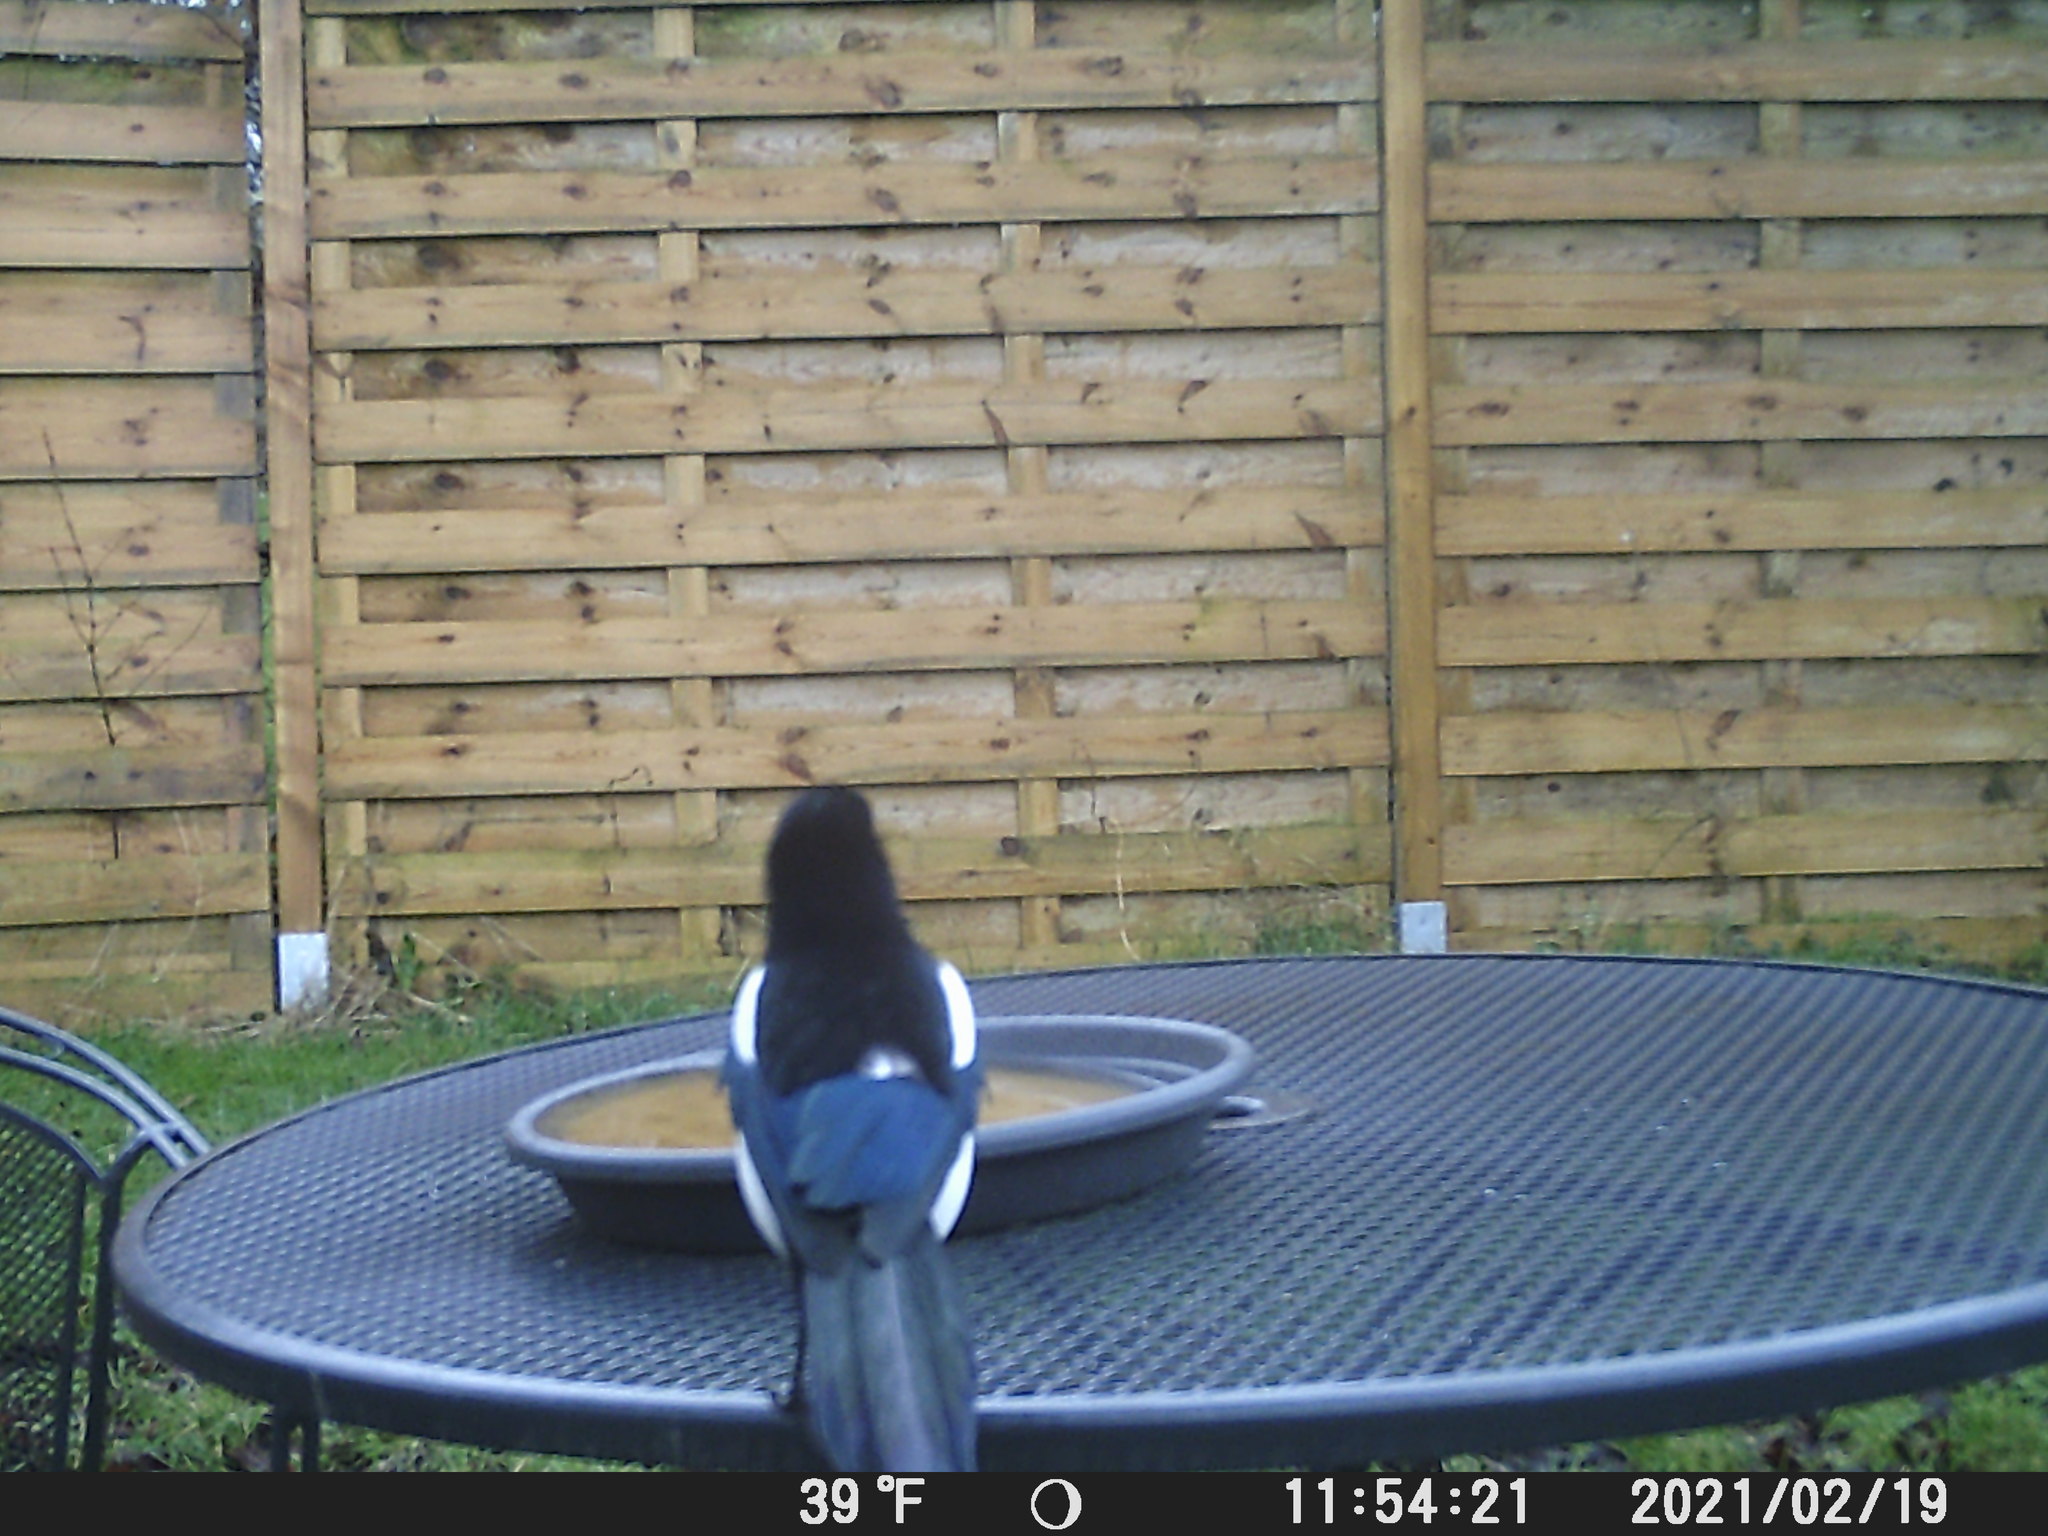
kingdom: Animalia
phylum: Chordata
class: Aves
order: Passeriformes
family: Corvidae
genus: Pica
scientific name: Pica pica
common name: Eurasian magpie
